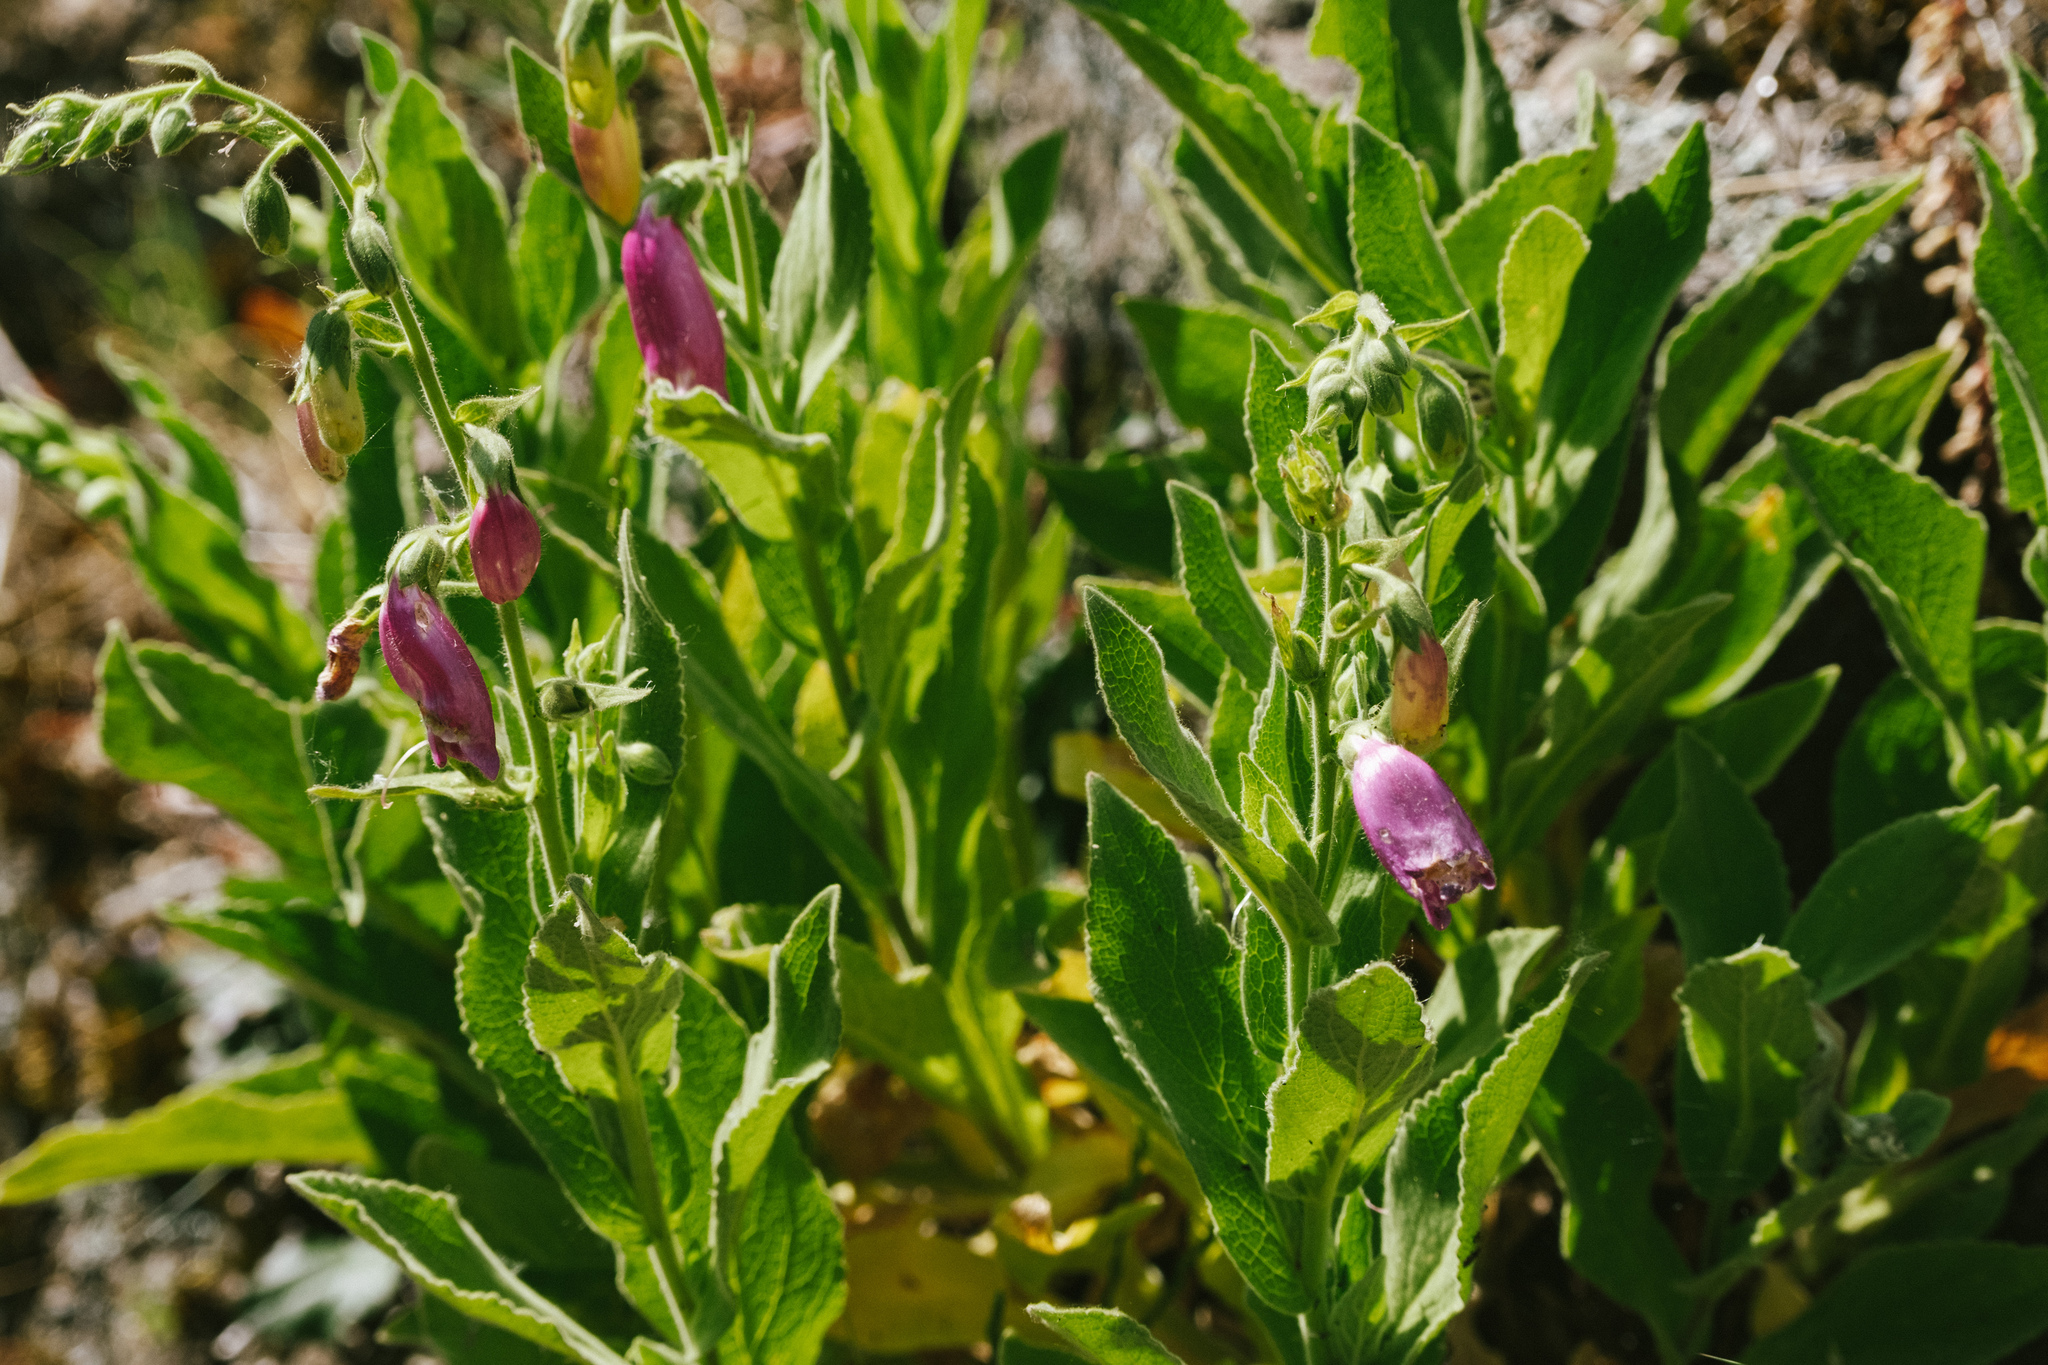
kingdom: Plantae
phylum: Tracheophyta
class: Magnoliopsida
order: Lamiales
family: Plantaginaceae
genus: Digitalis
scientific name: Digitalis thapsi
